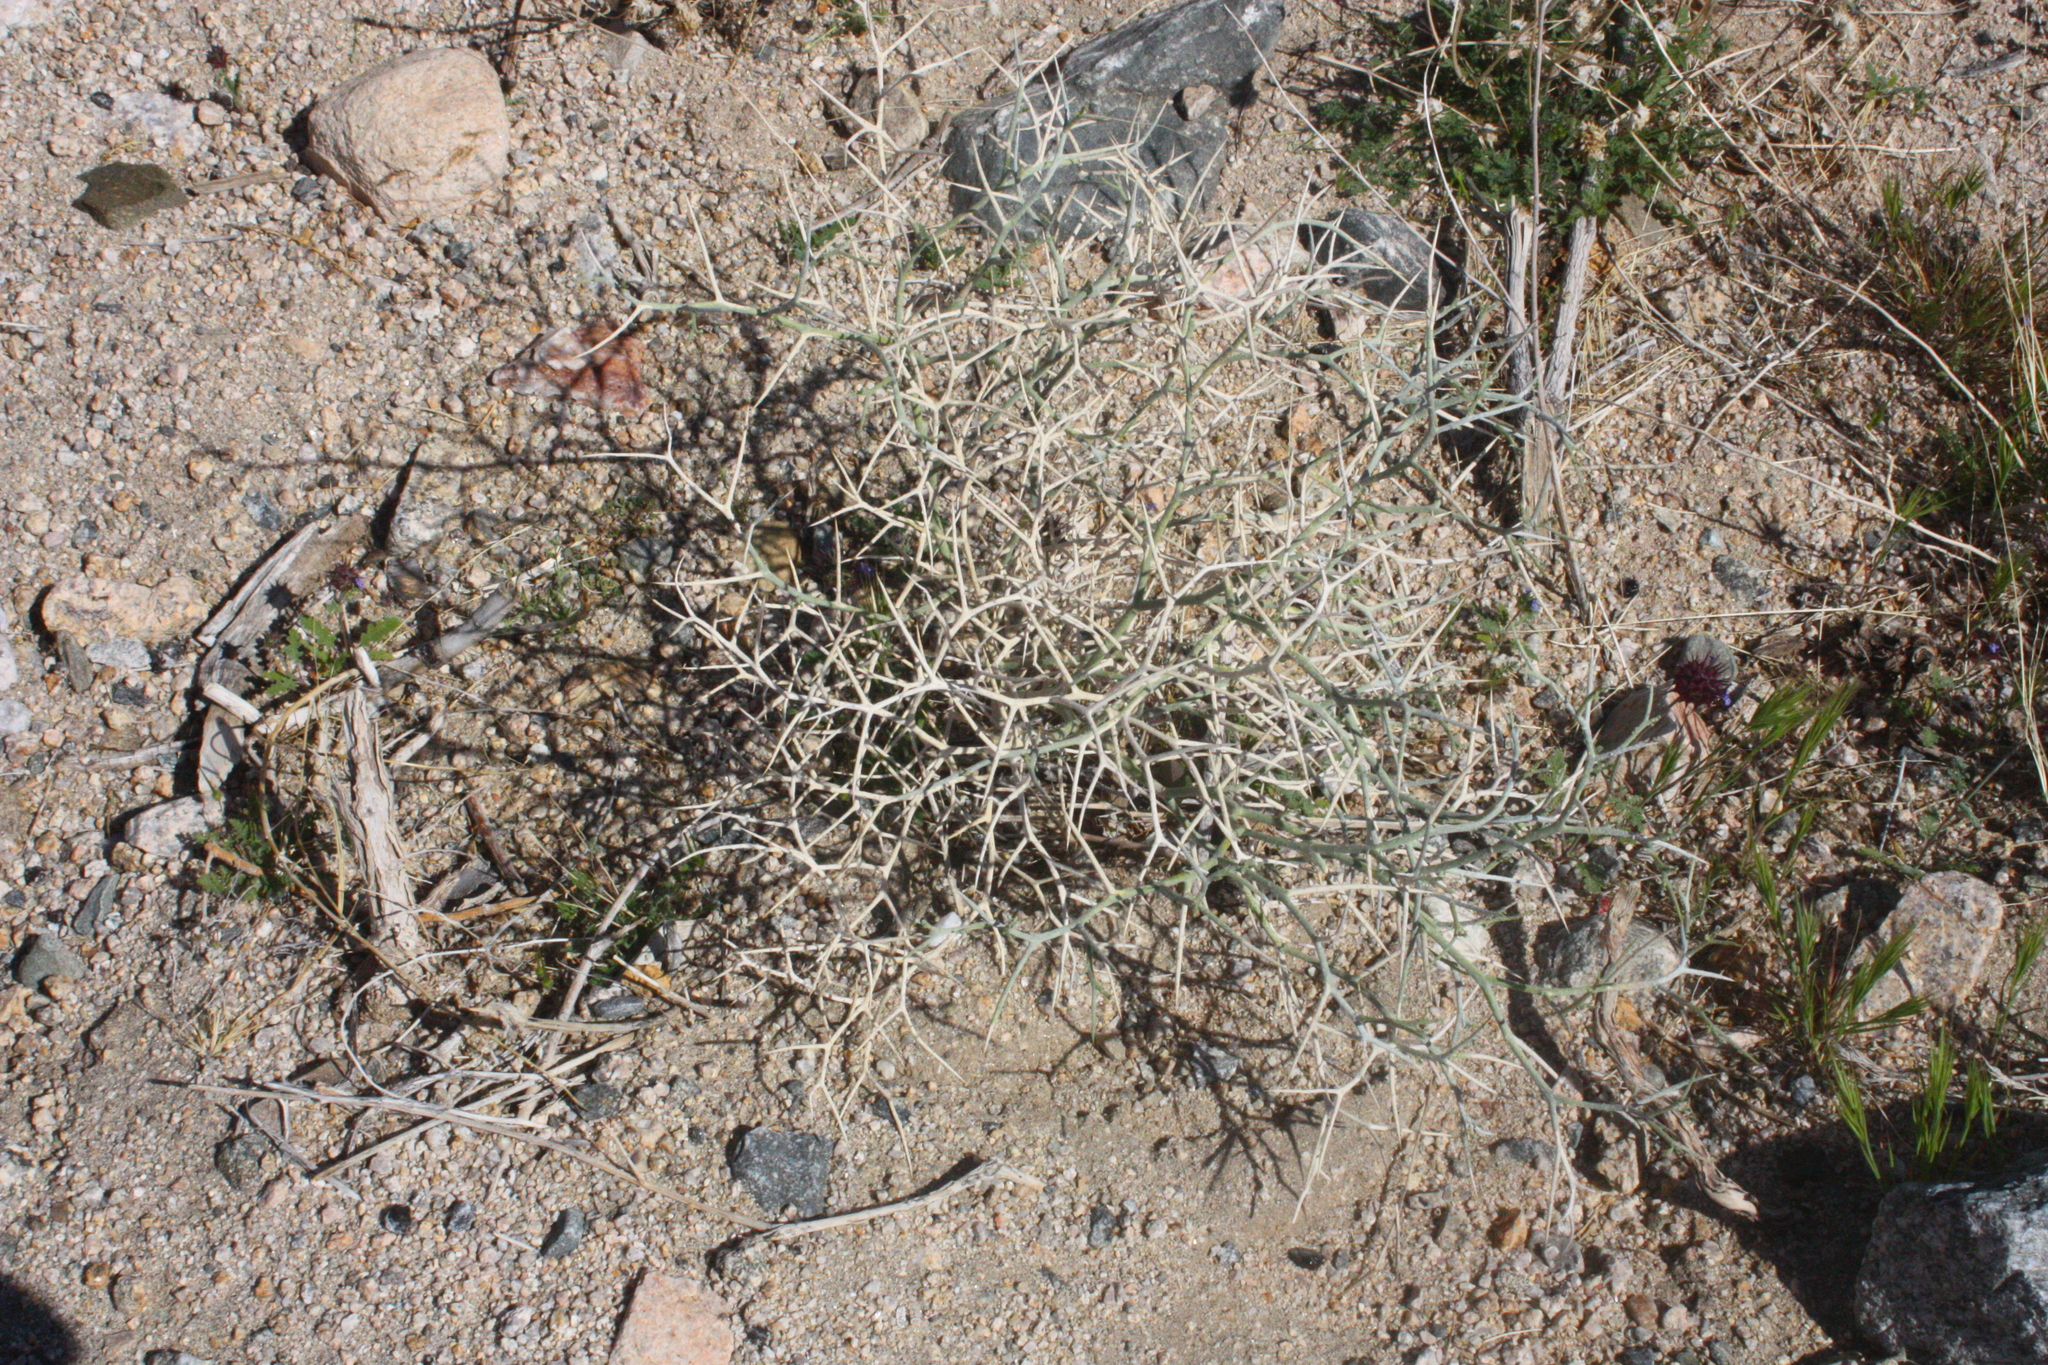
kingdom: Plantae
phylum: Tracheophyta
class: Magnoliopsida
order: Fabales
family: Fabaceae
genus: Psorothamnus
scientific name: Psorothamnus spinosus
